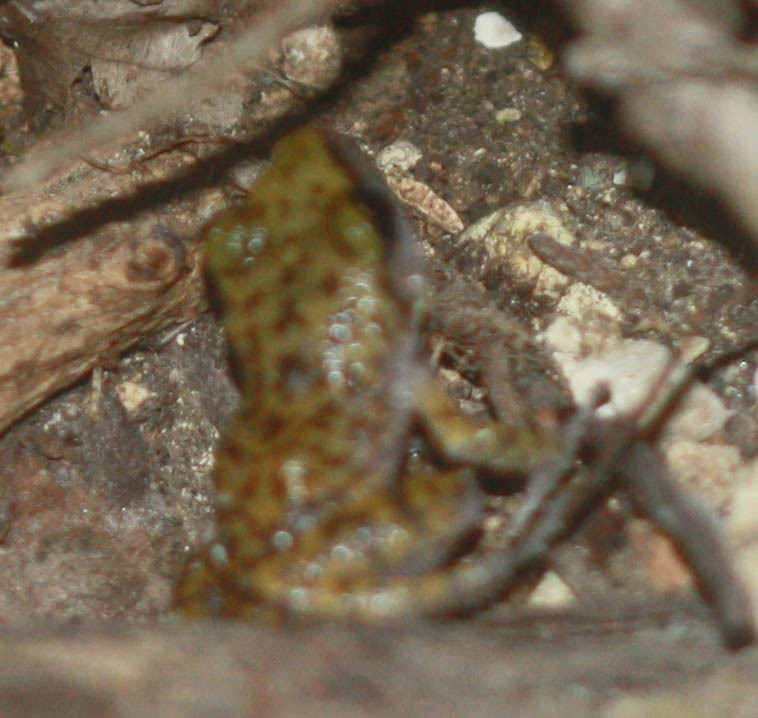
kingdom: Animalia
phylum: Chordata
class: Amphibia
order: Anura
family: Eleutherodactylidae
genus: Eleutherodactylus
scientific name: Eleutherodactylus marnockii
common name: Cliff chirping frog
